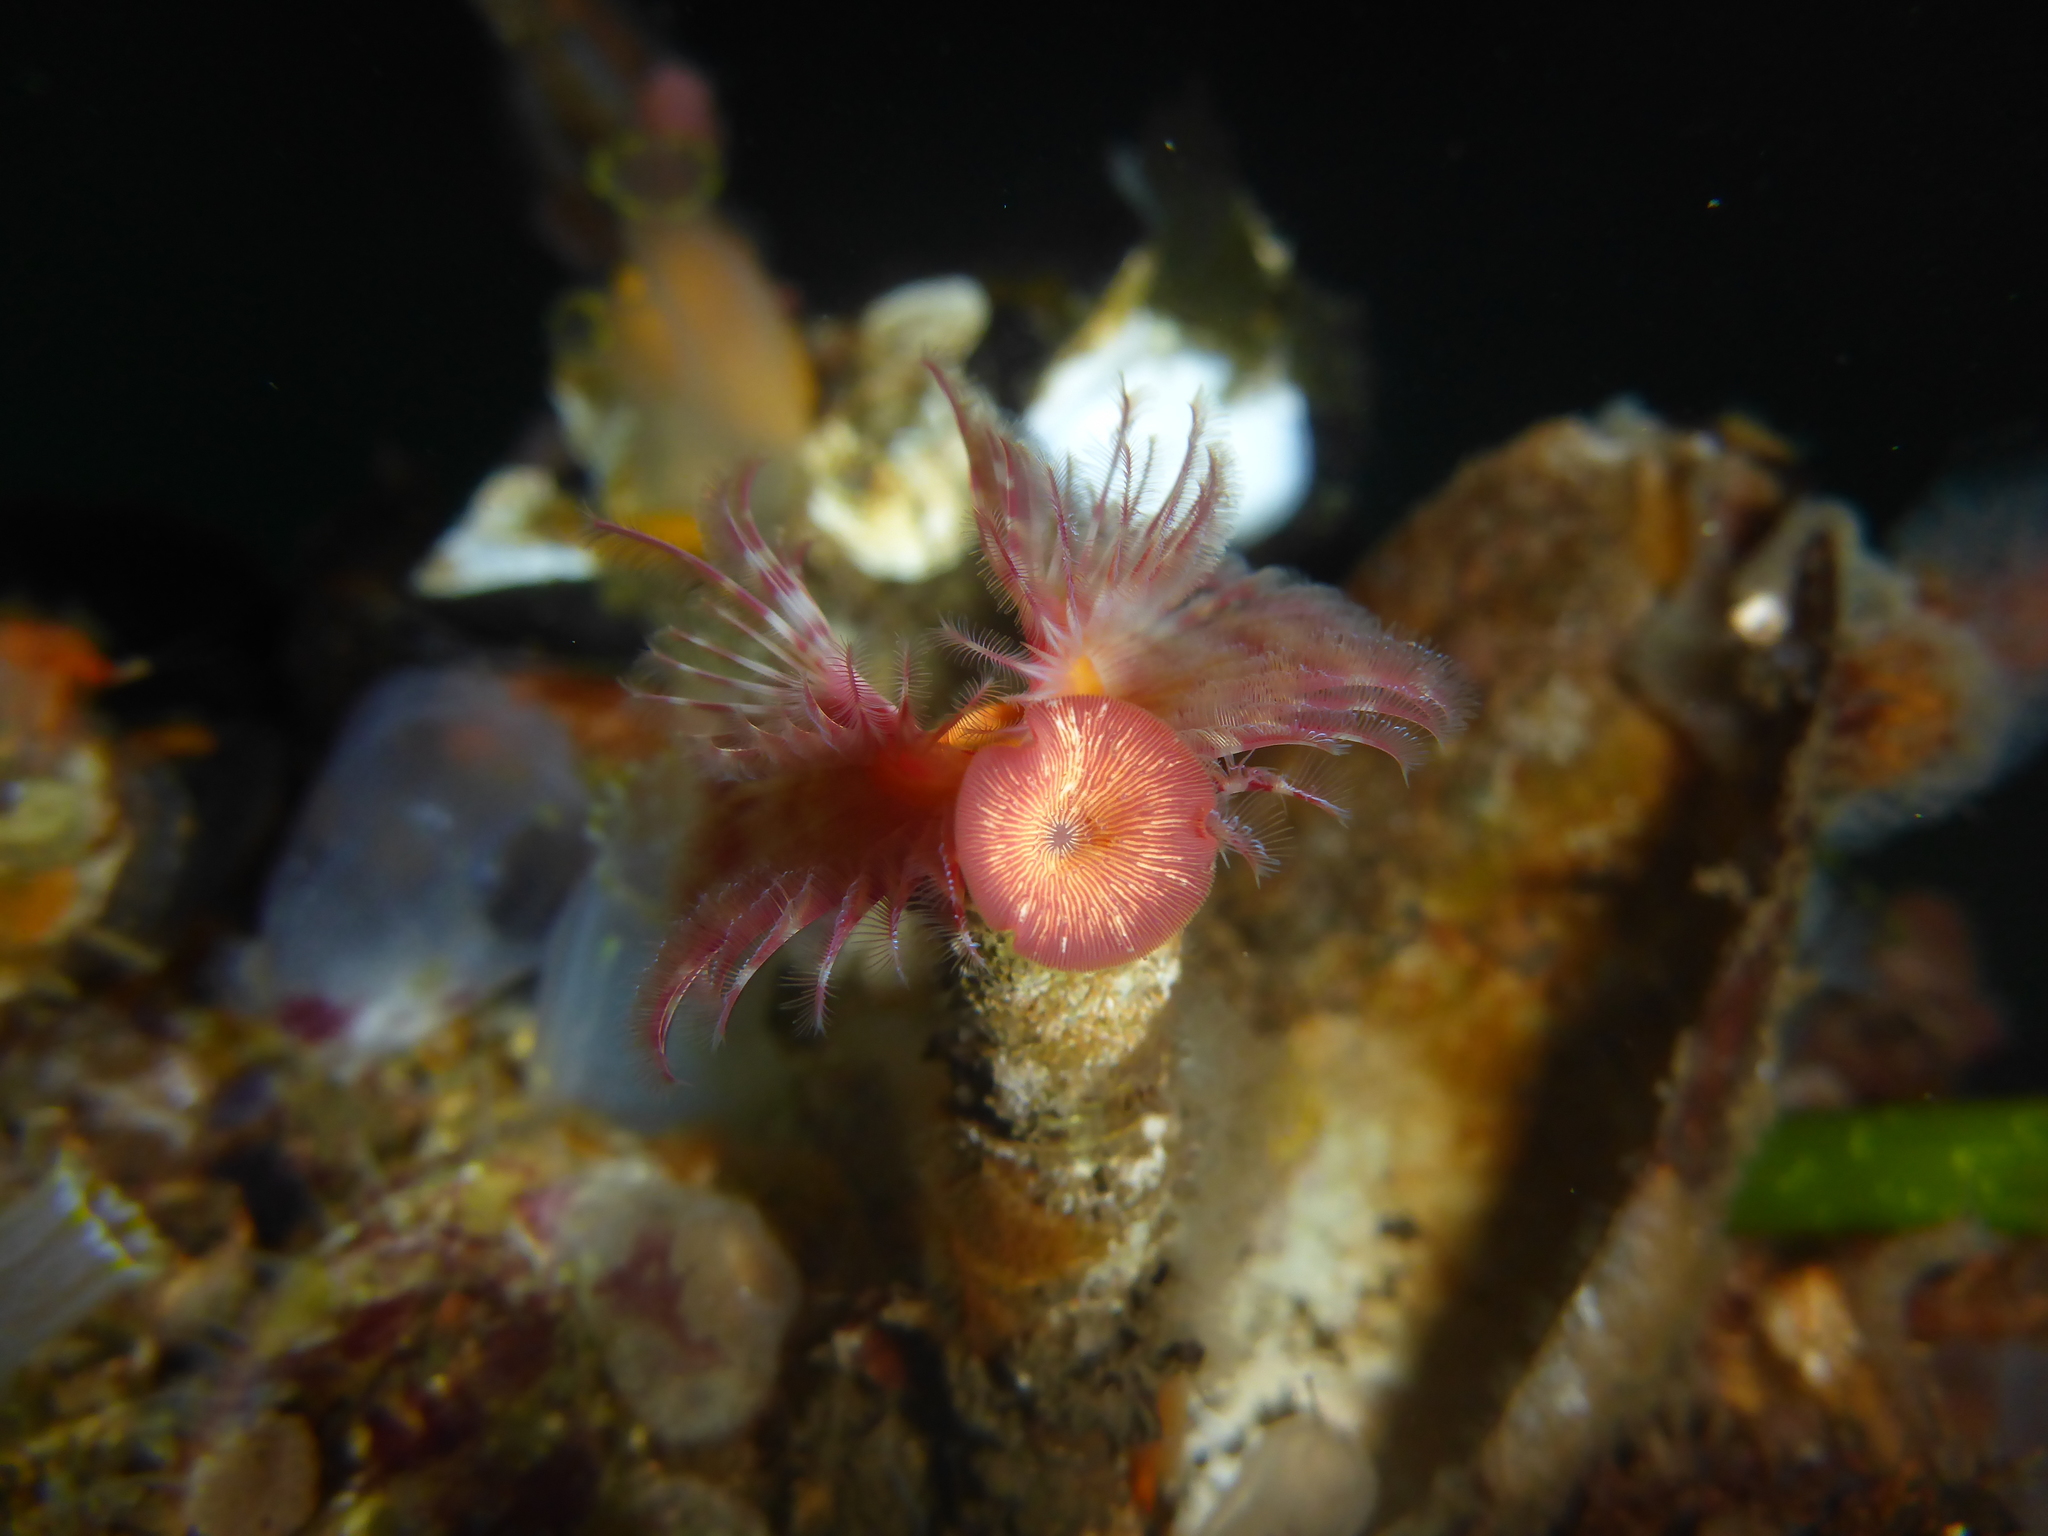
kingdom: Animalia
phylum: Annelida
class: Polychaeta
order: Sabellida
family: Serpulidae
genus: Serpula
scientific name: Serpula columbiana
